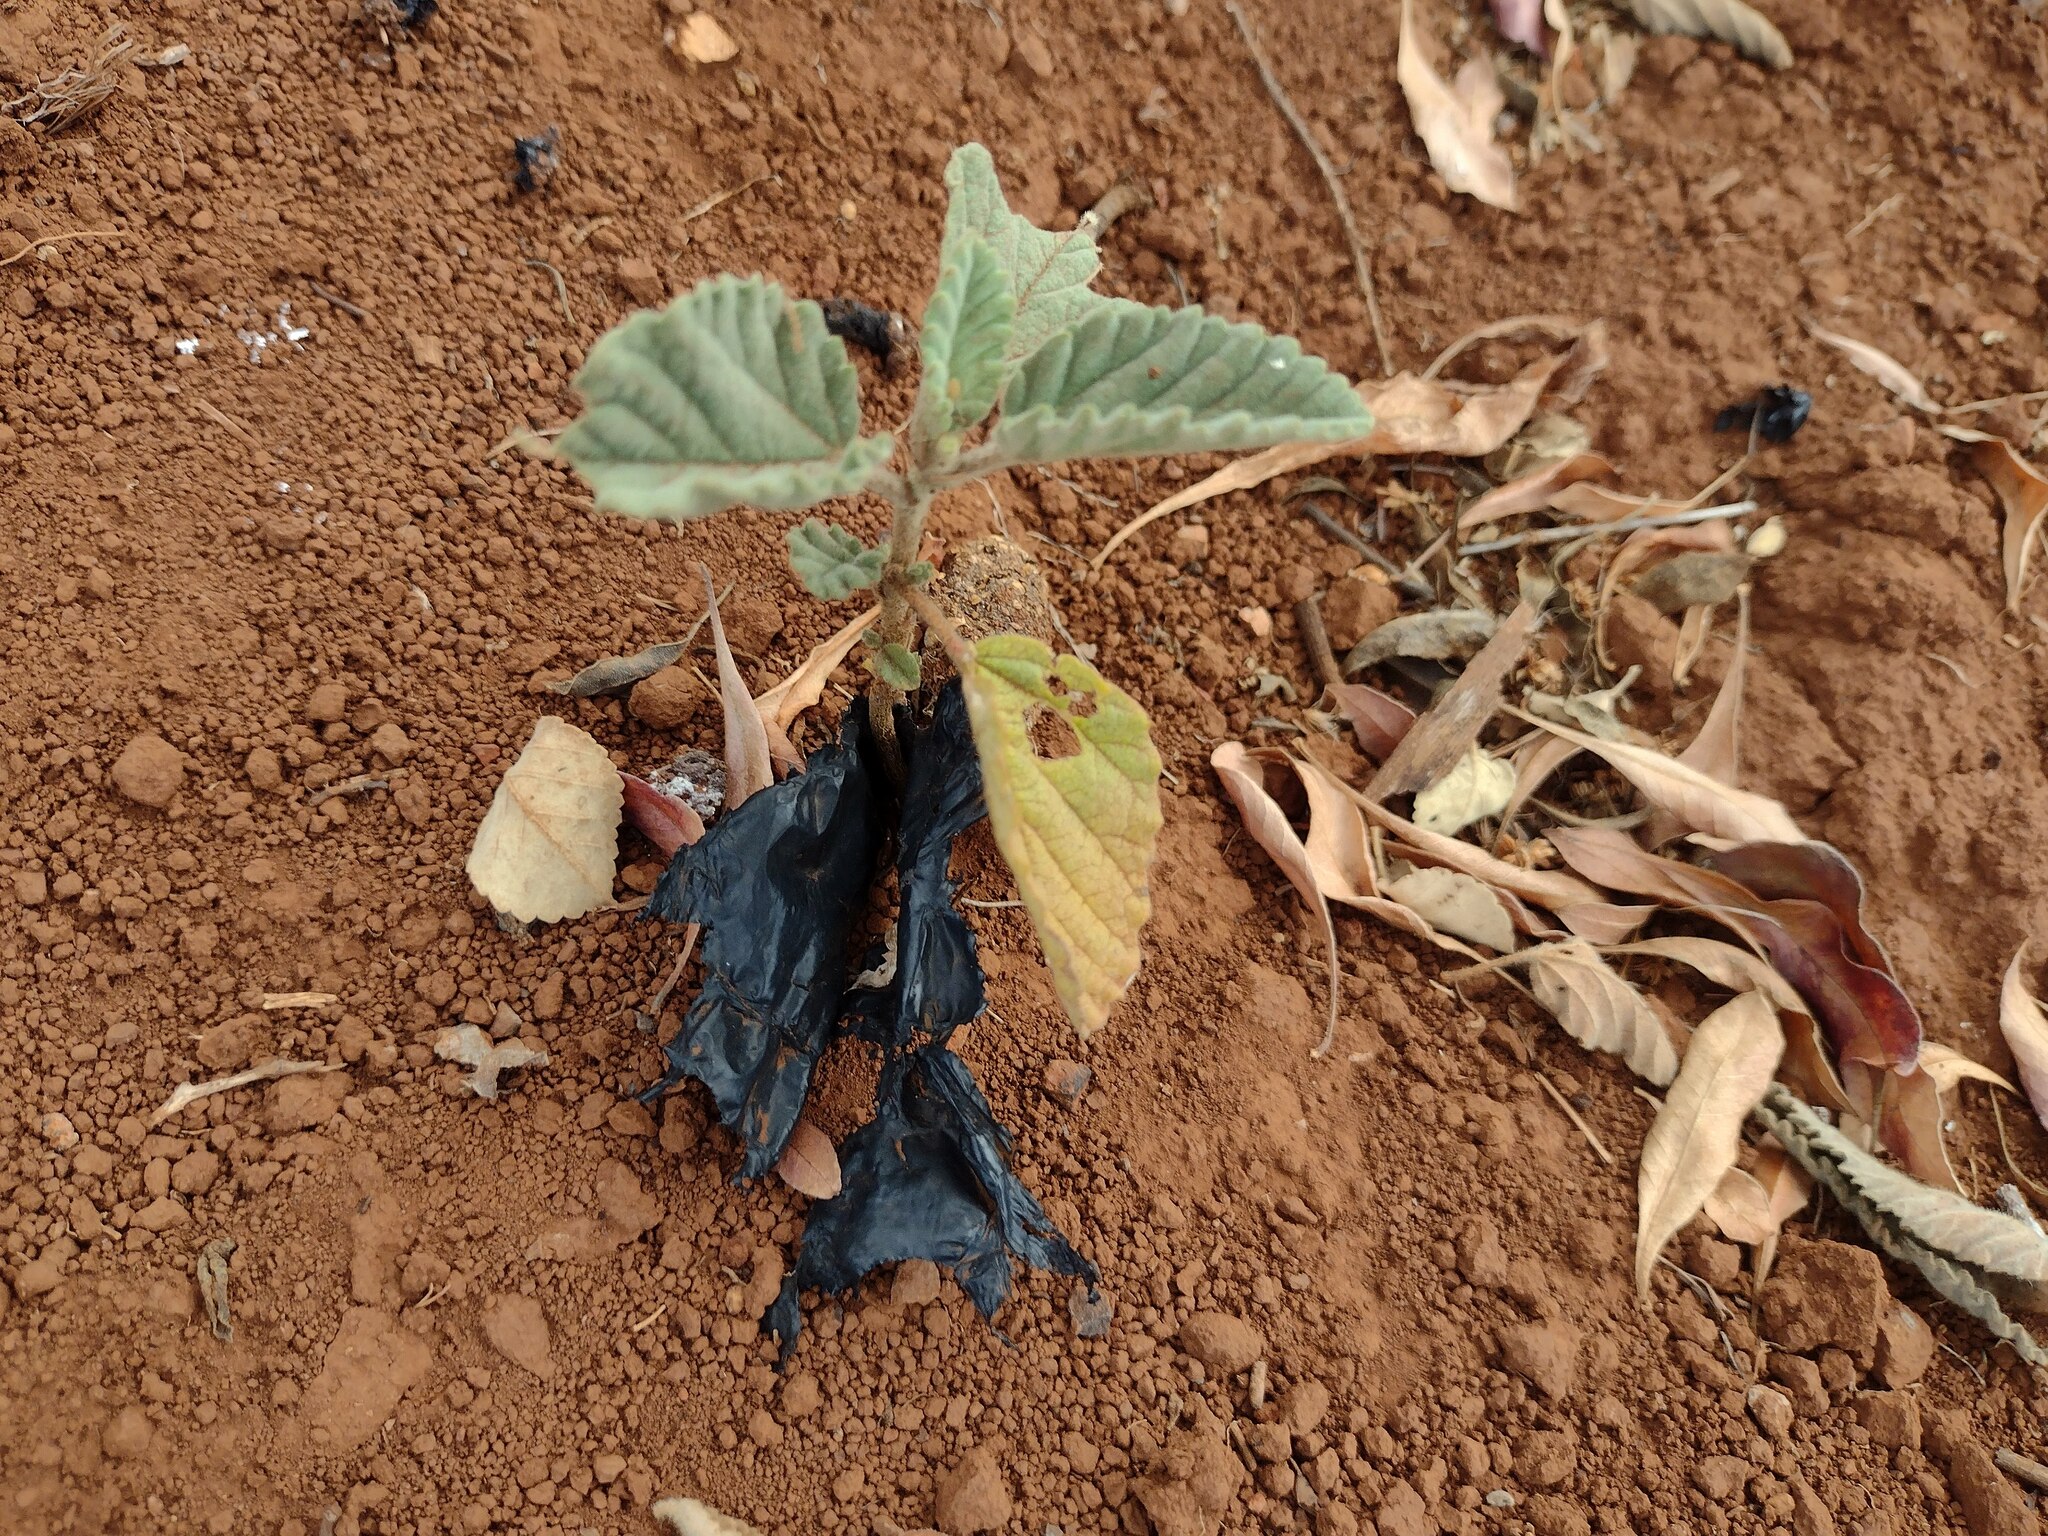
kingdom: Plantae
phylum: Tracheophyta
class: Magnoliopsida
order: Malvales
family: Malvaceae
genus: Waltheria
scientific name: Waltheria indica
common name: Leather-coat
